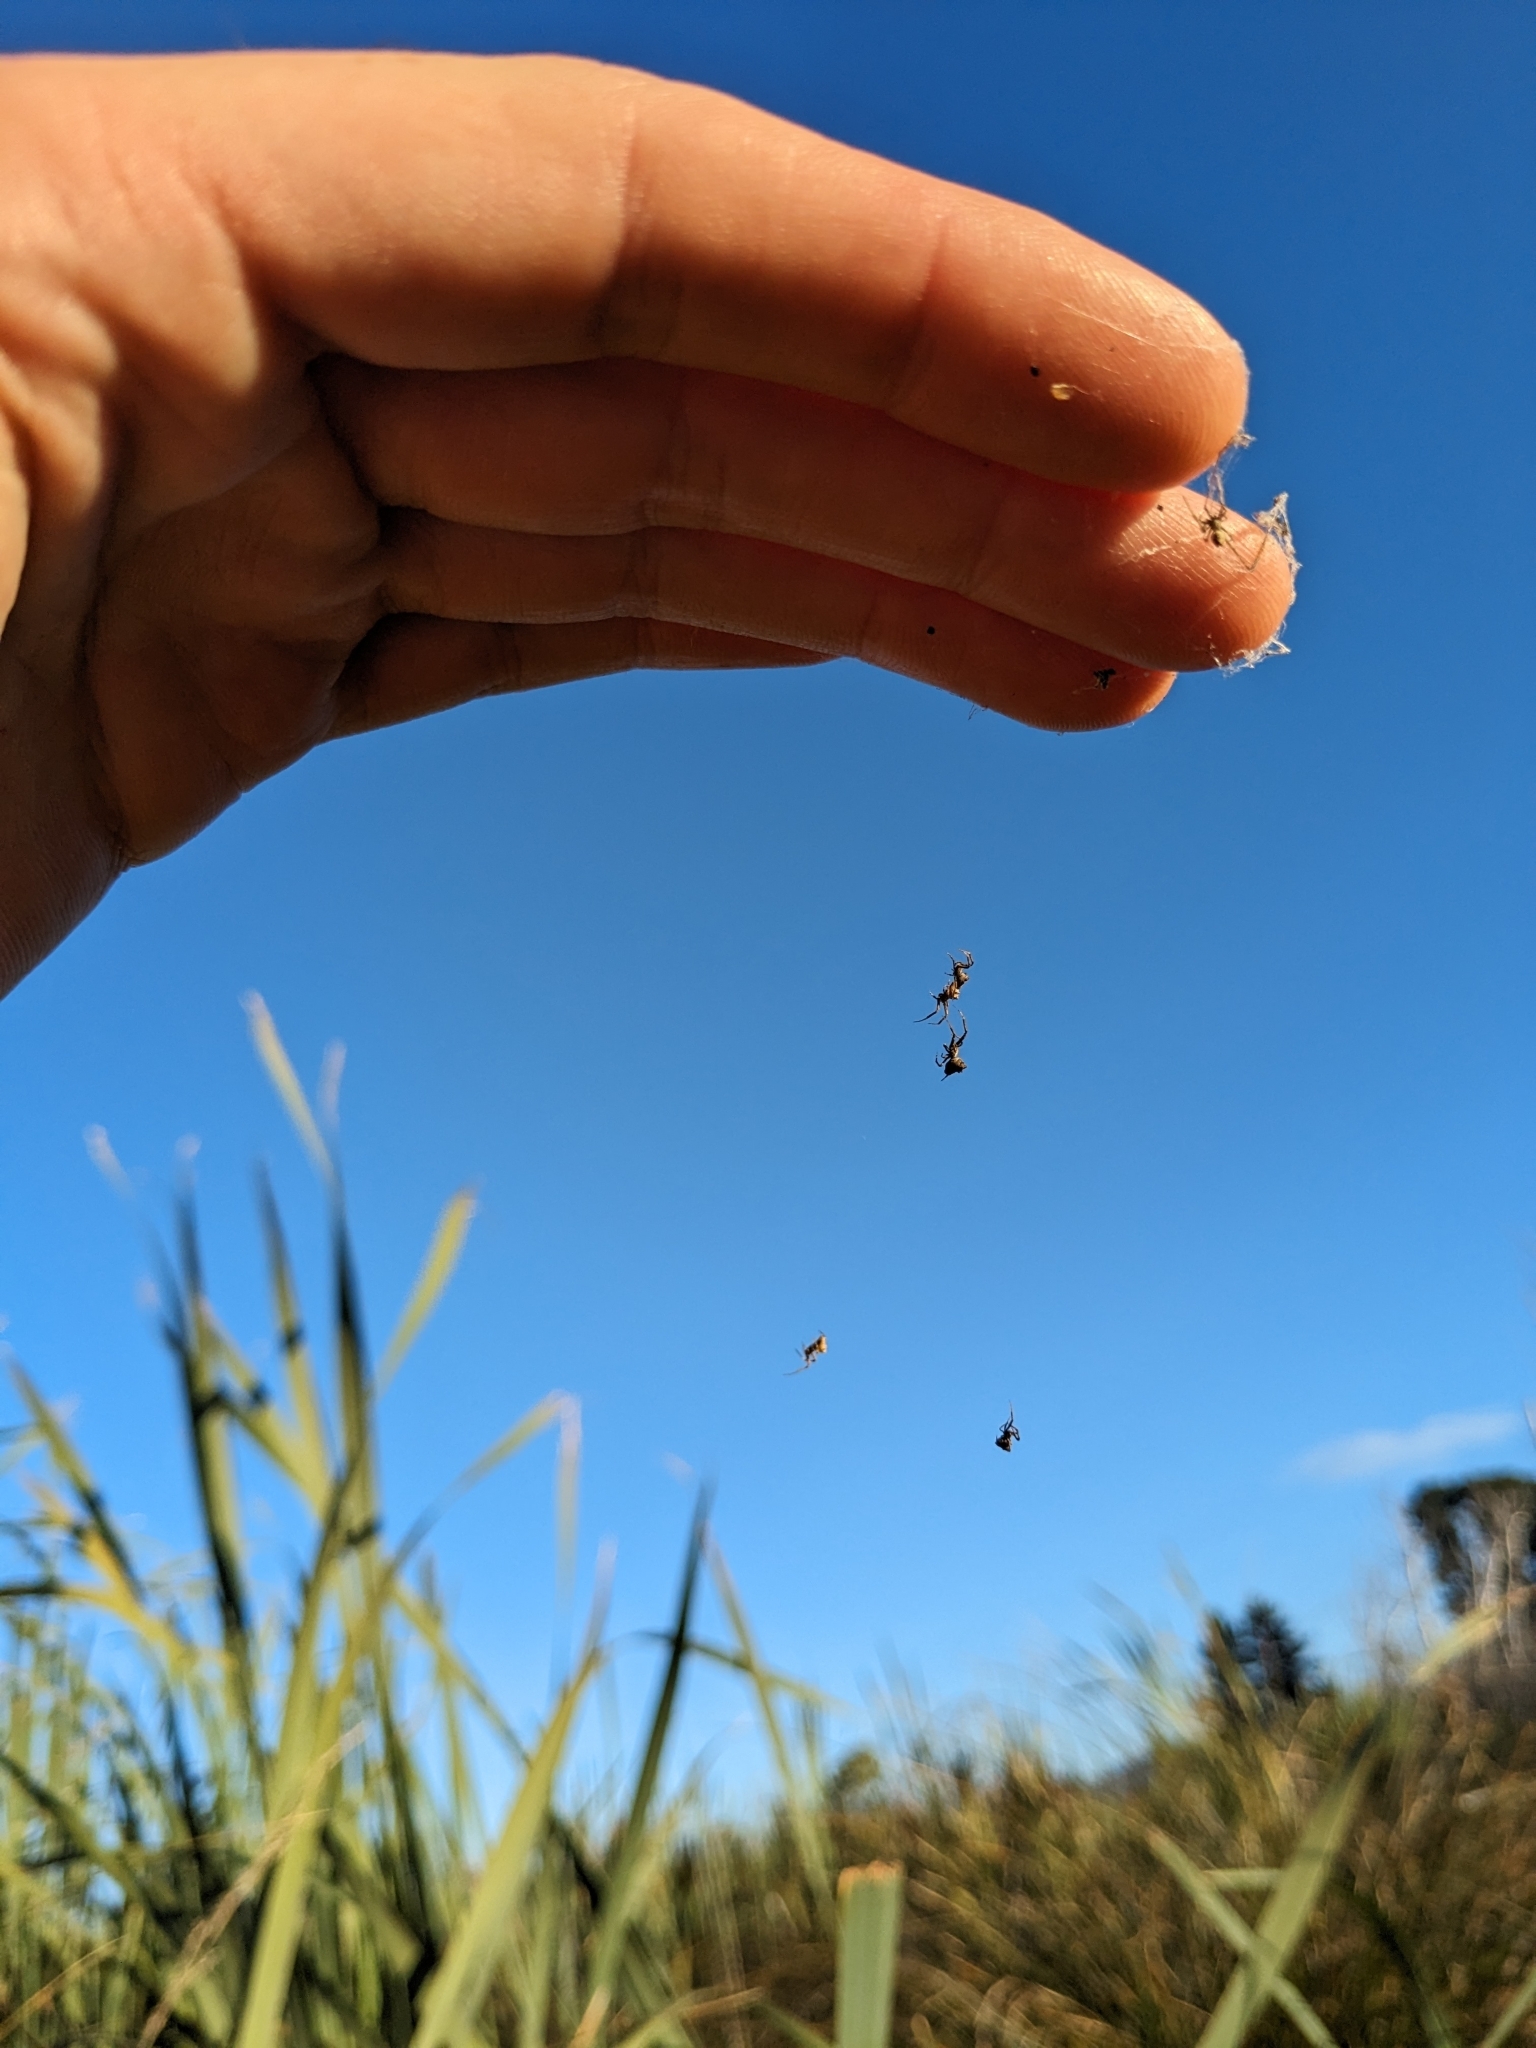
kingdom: Animalia
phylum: Arthropoda
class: Arachnida
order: Araneae
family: Uloboridae
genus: Philoponella
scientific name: Philoponella congregabilis
